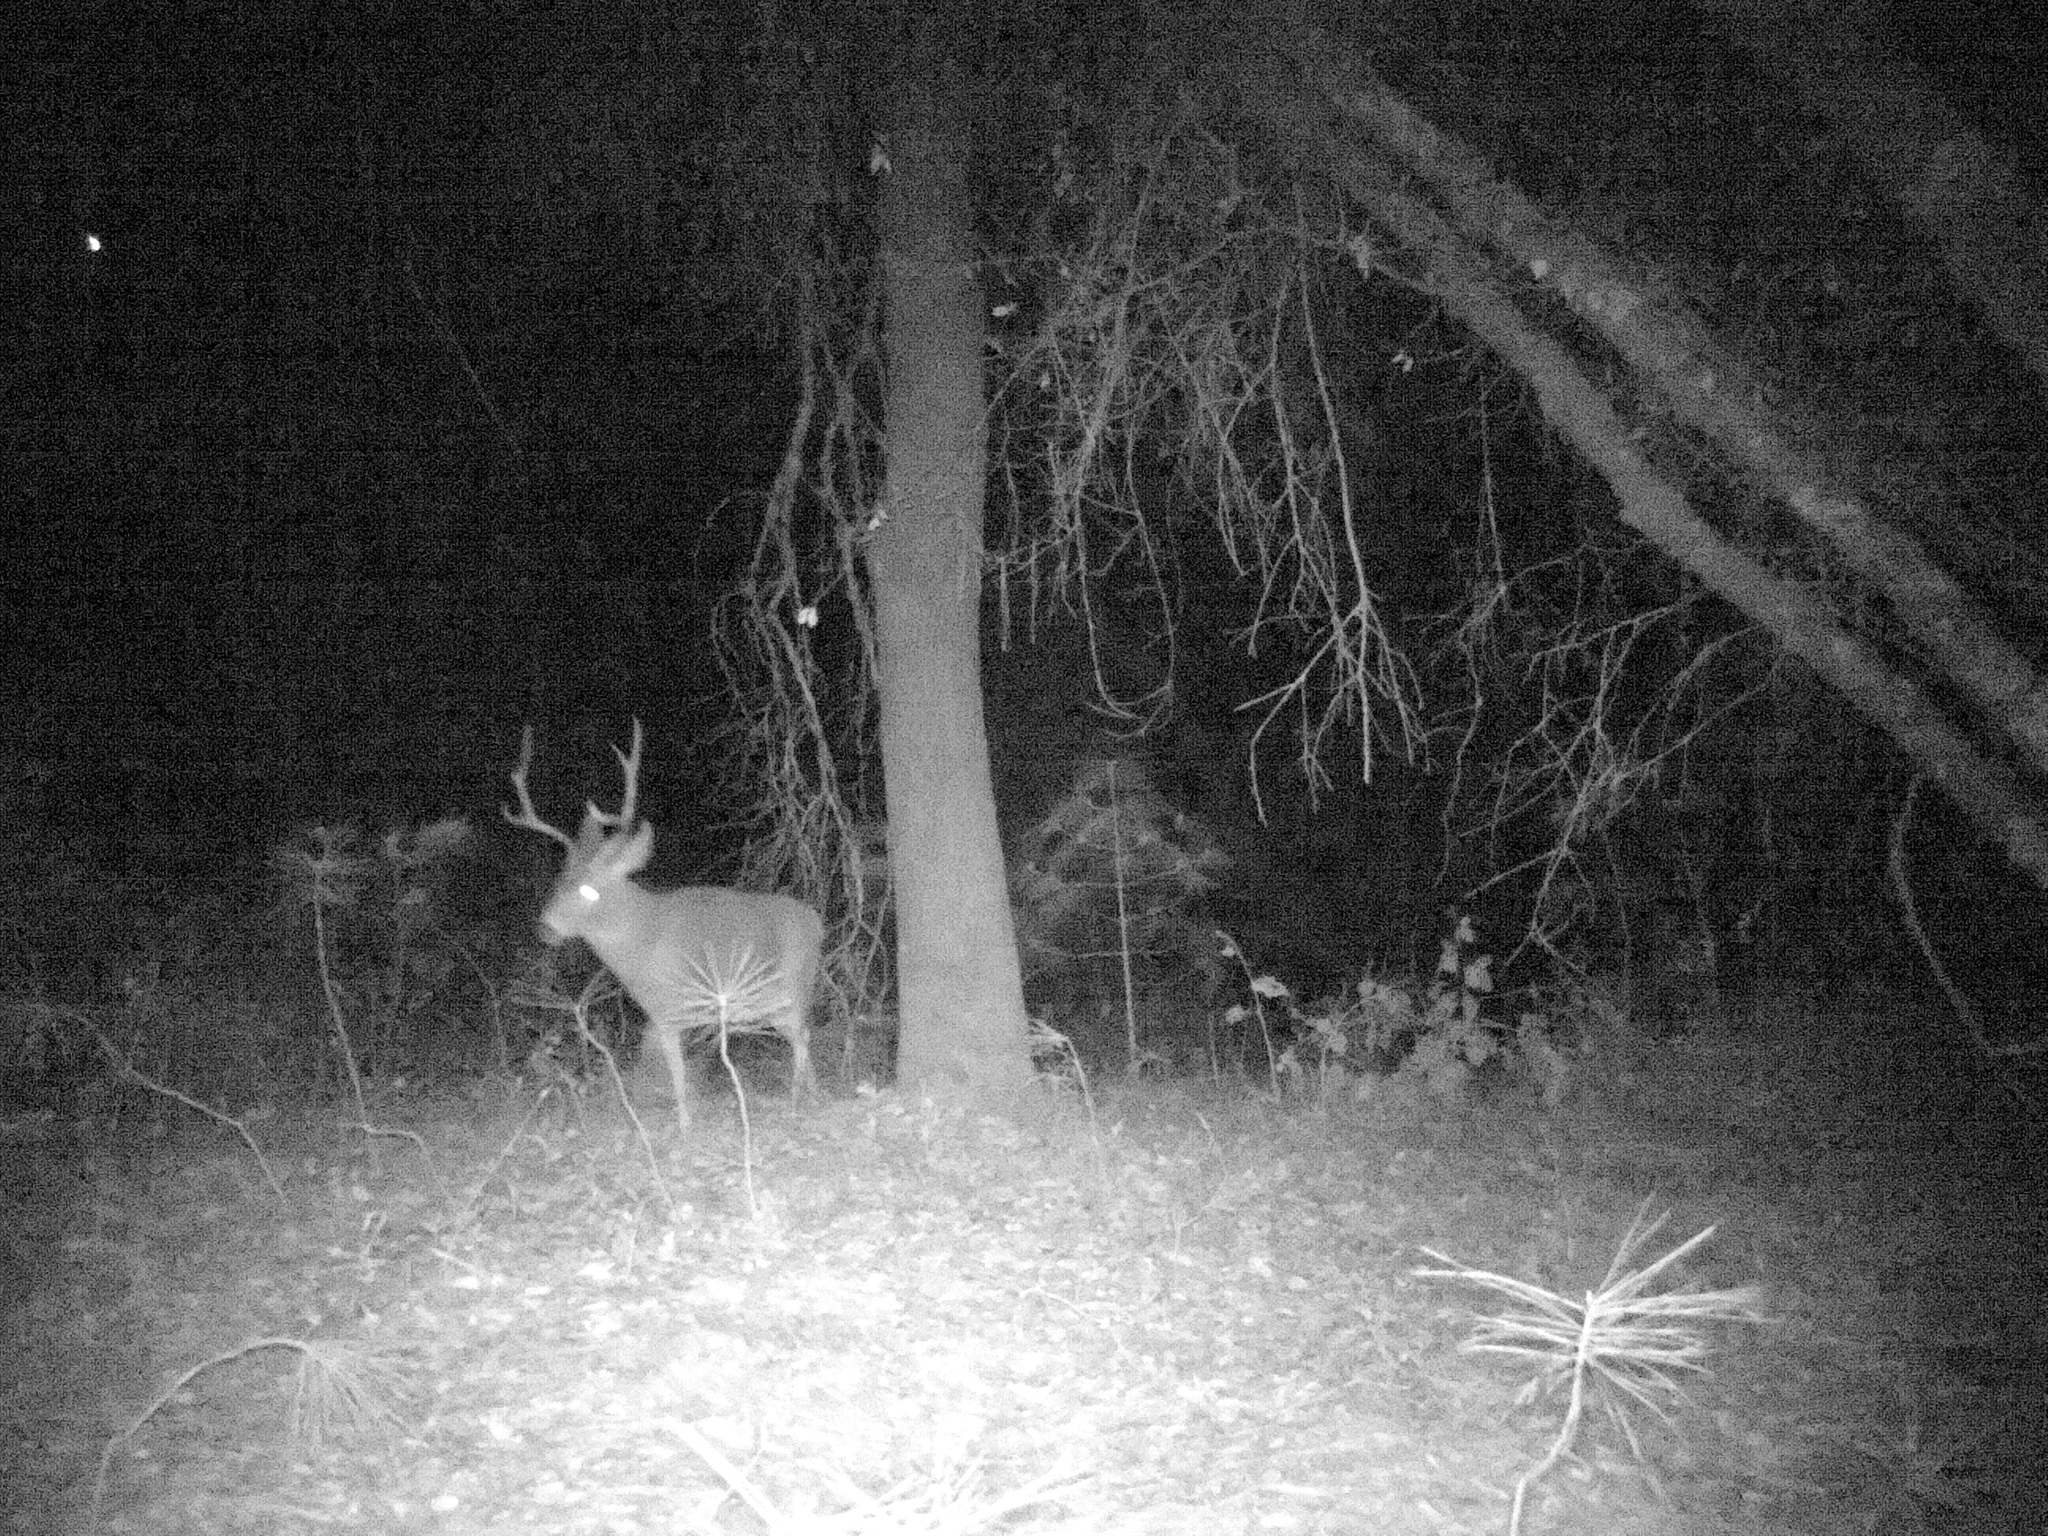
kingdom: Animalia
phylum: Chordata
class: Mammalia
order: Artiodactyla
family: Cervidae
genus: Odocoileus
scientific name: Odocoileus hemionus
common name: Mule deer
